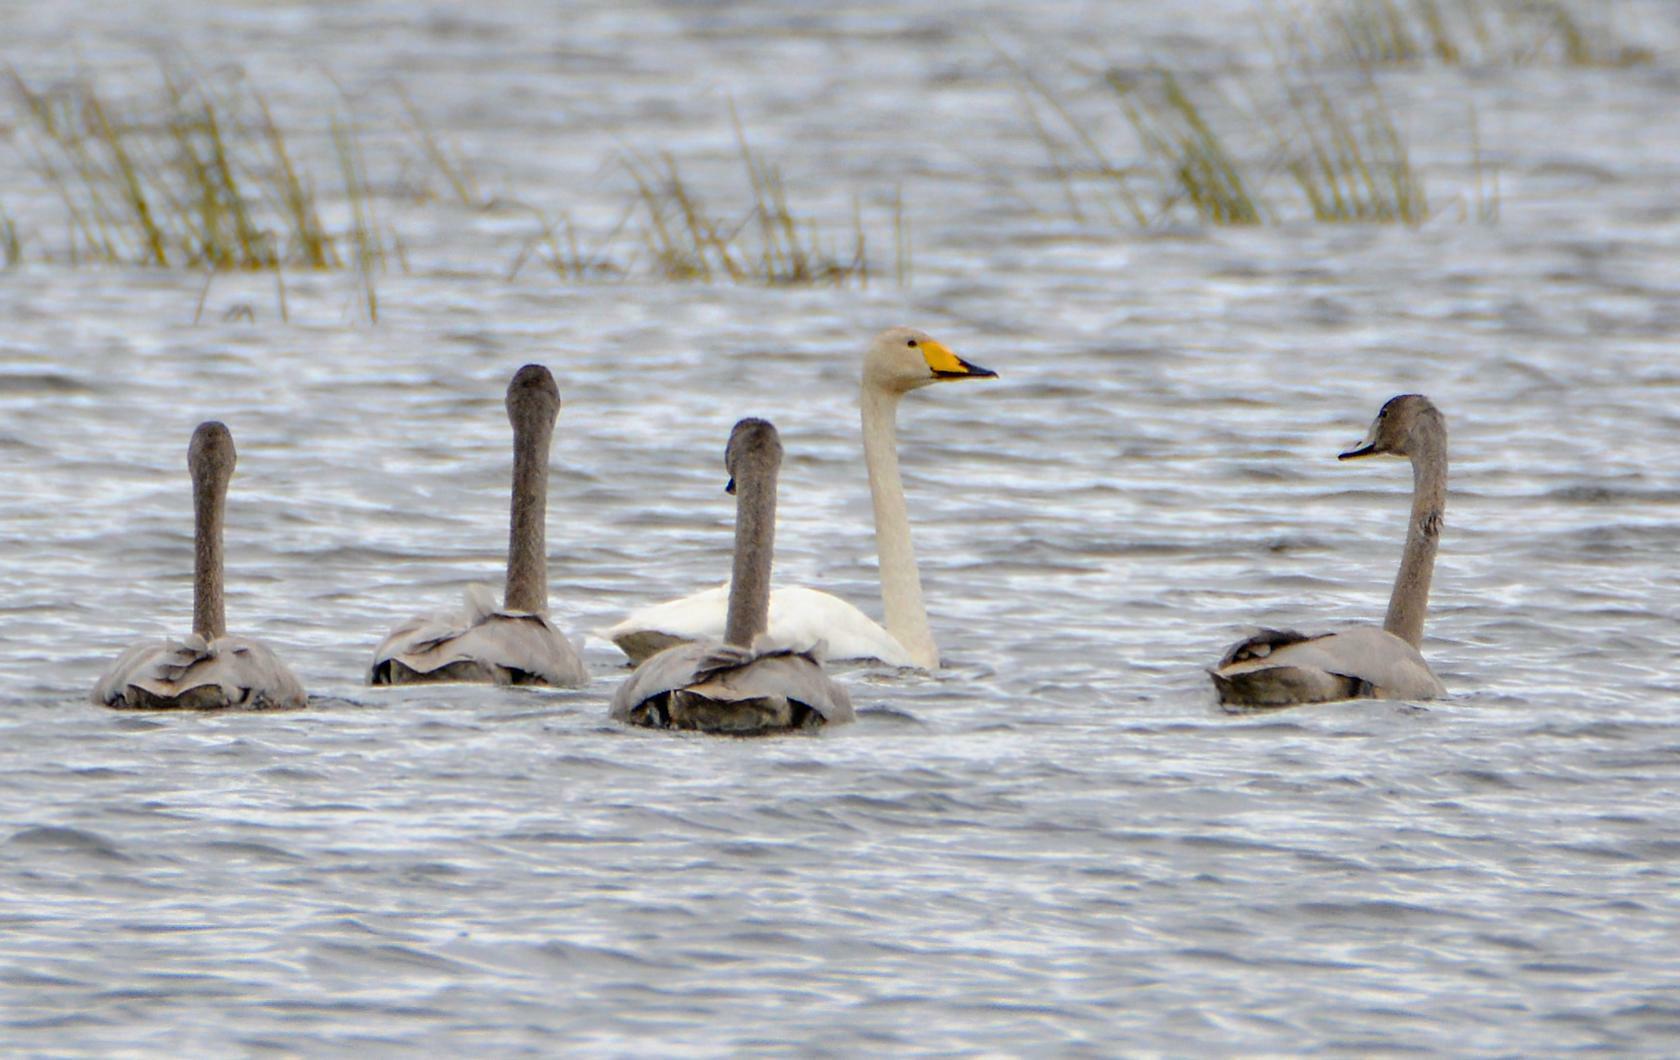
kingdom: Animalia
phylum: Chordata
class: Aves
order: Anseriformes
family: Anatidae
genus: Cygnus
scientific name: Cygnus cygnus
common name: Whooper swan
